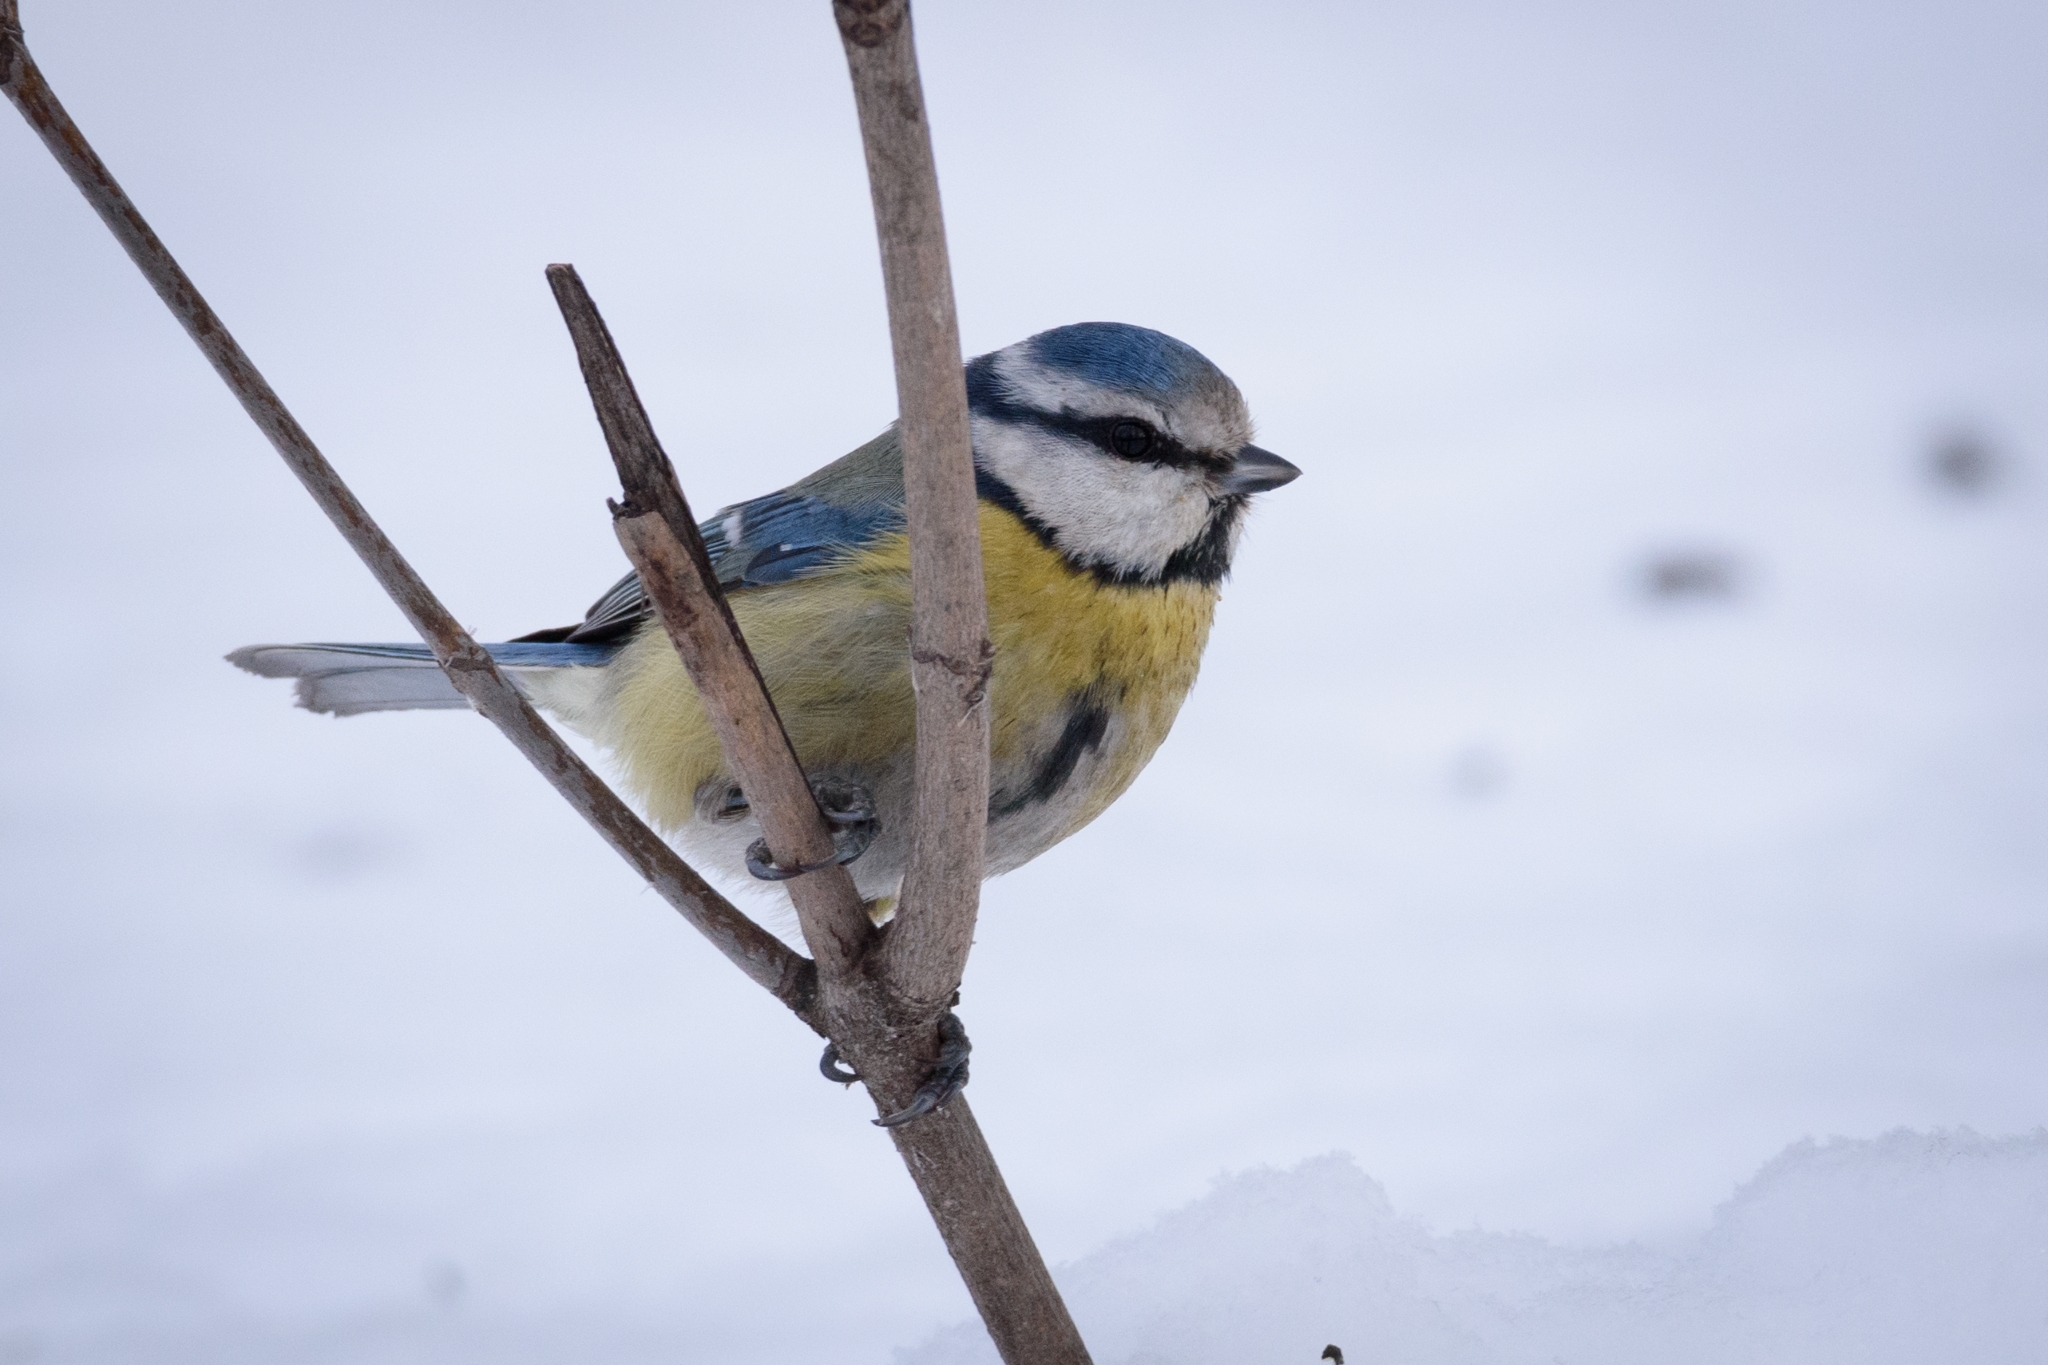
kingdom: Animalia
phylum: Chordata
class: Aves
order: Passeriformes
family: Paridae
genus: Cyanistes
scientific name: Cyanistes caeruleus
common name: Eurasian blue tit
